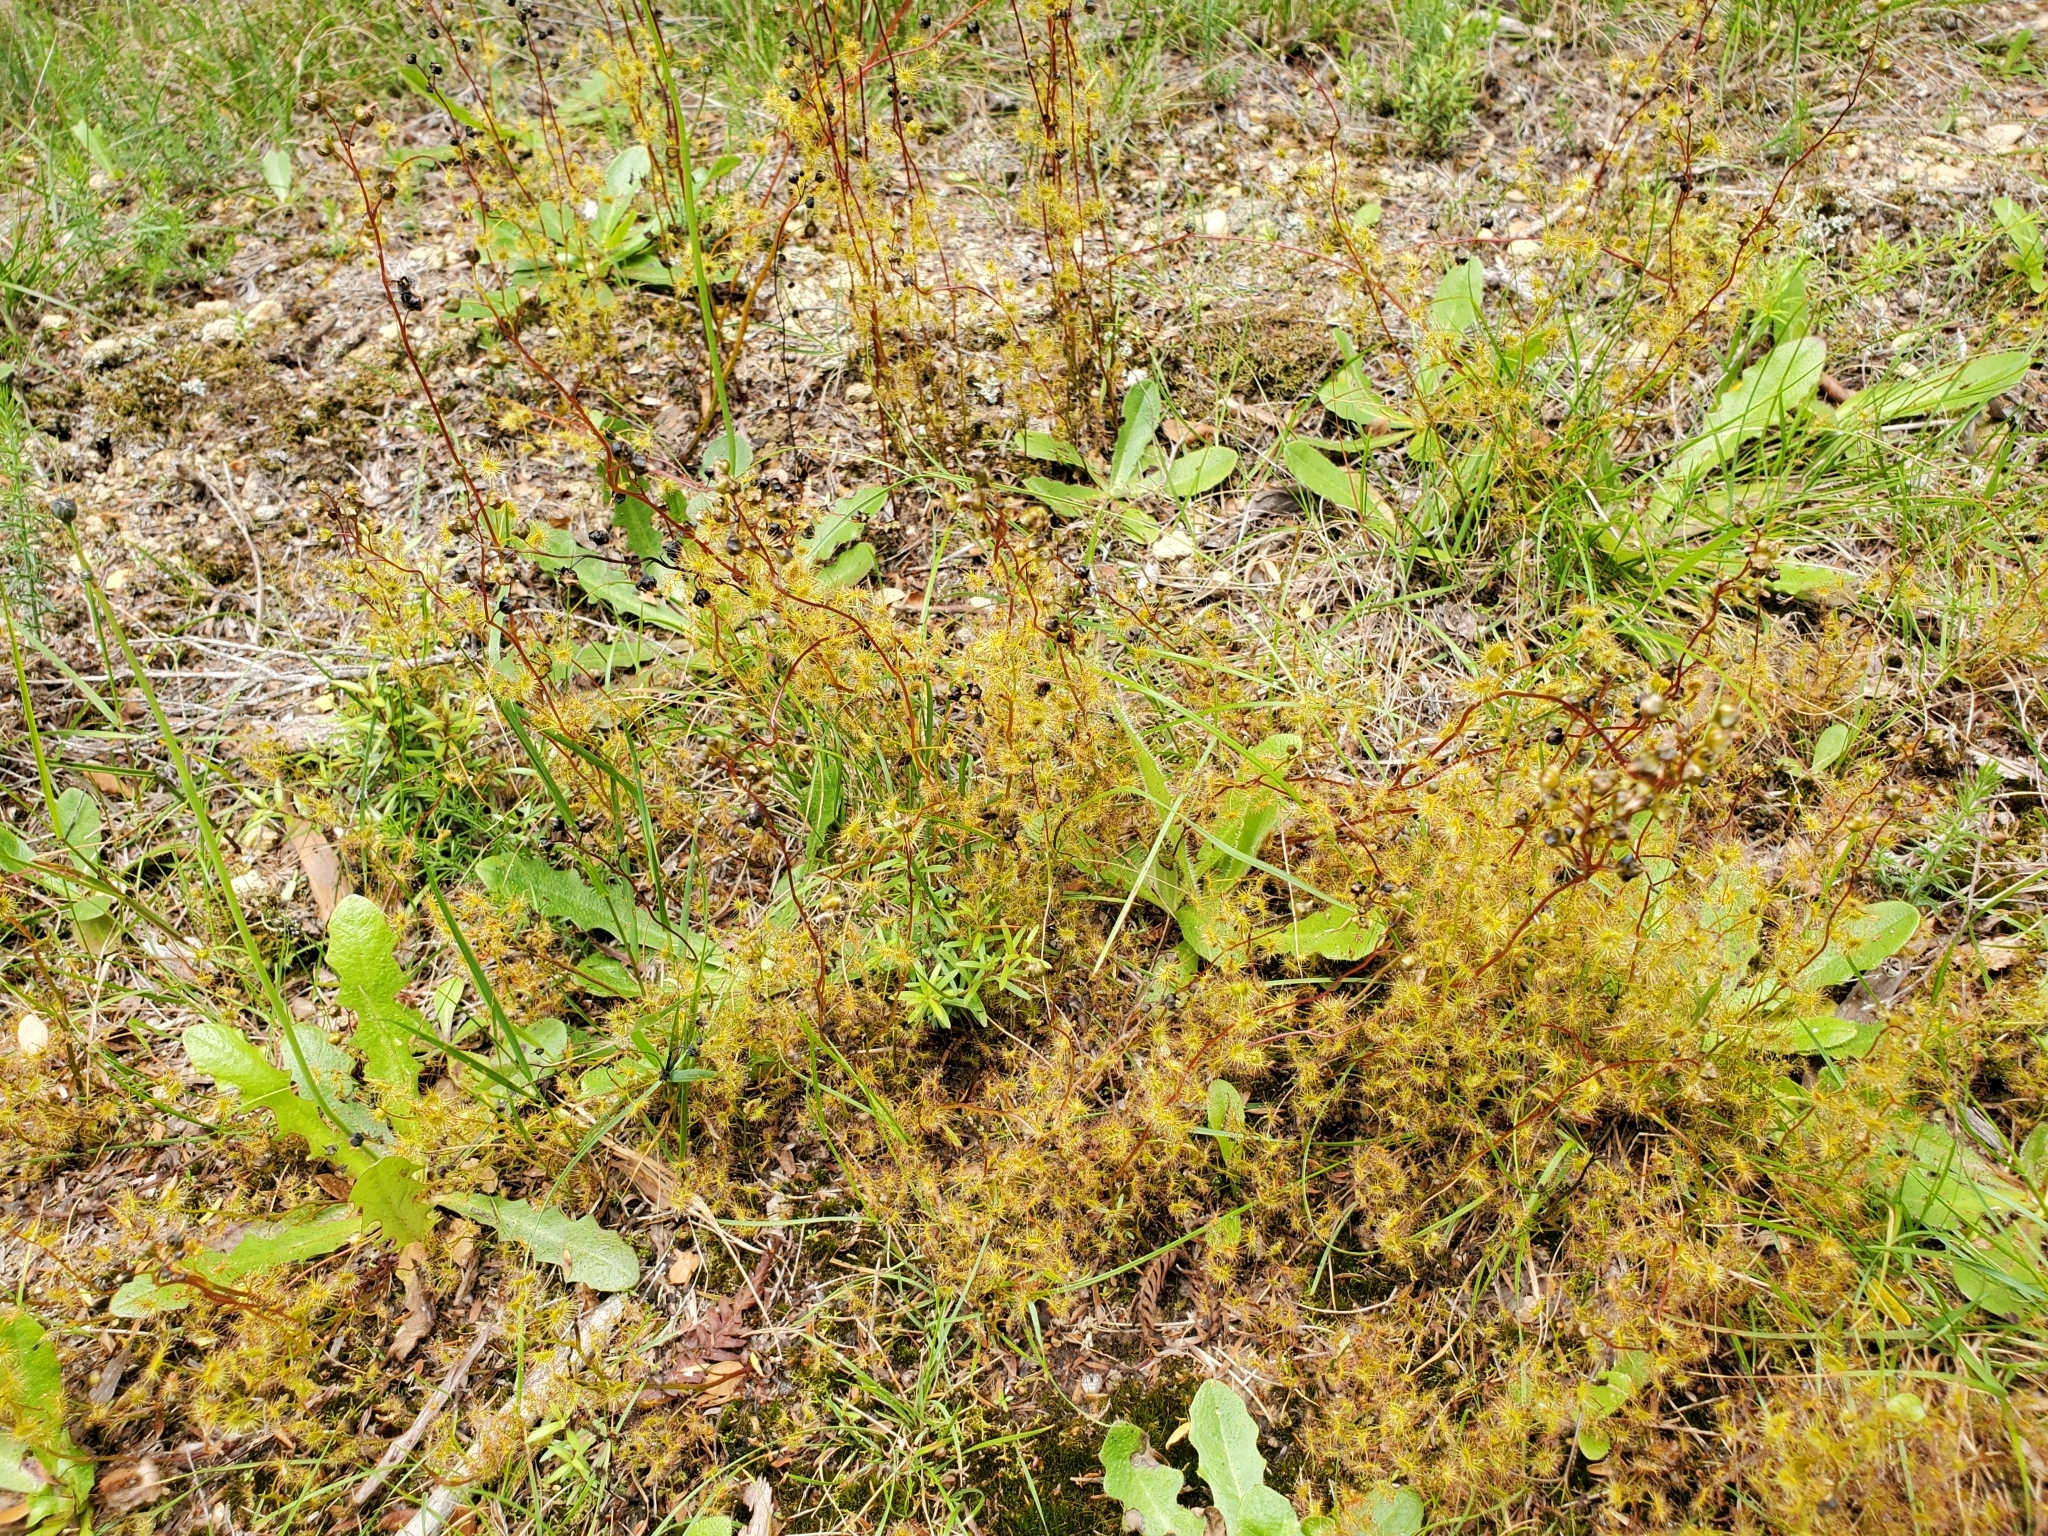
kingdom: Plantae
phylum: Tracheophyta
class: Magnoliopsida
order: Caryophyllales
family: Droseraceae
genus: Drosera
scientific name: Drosera peltata
